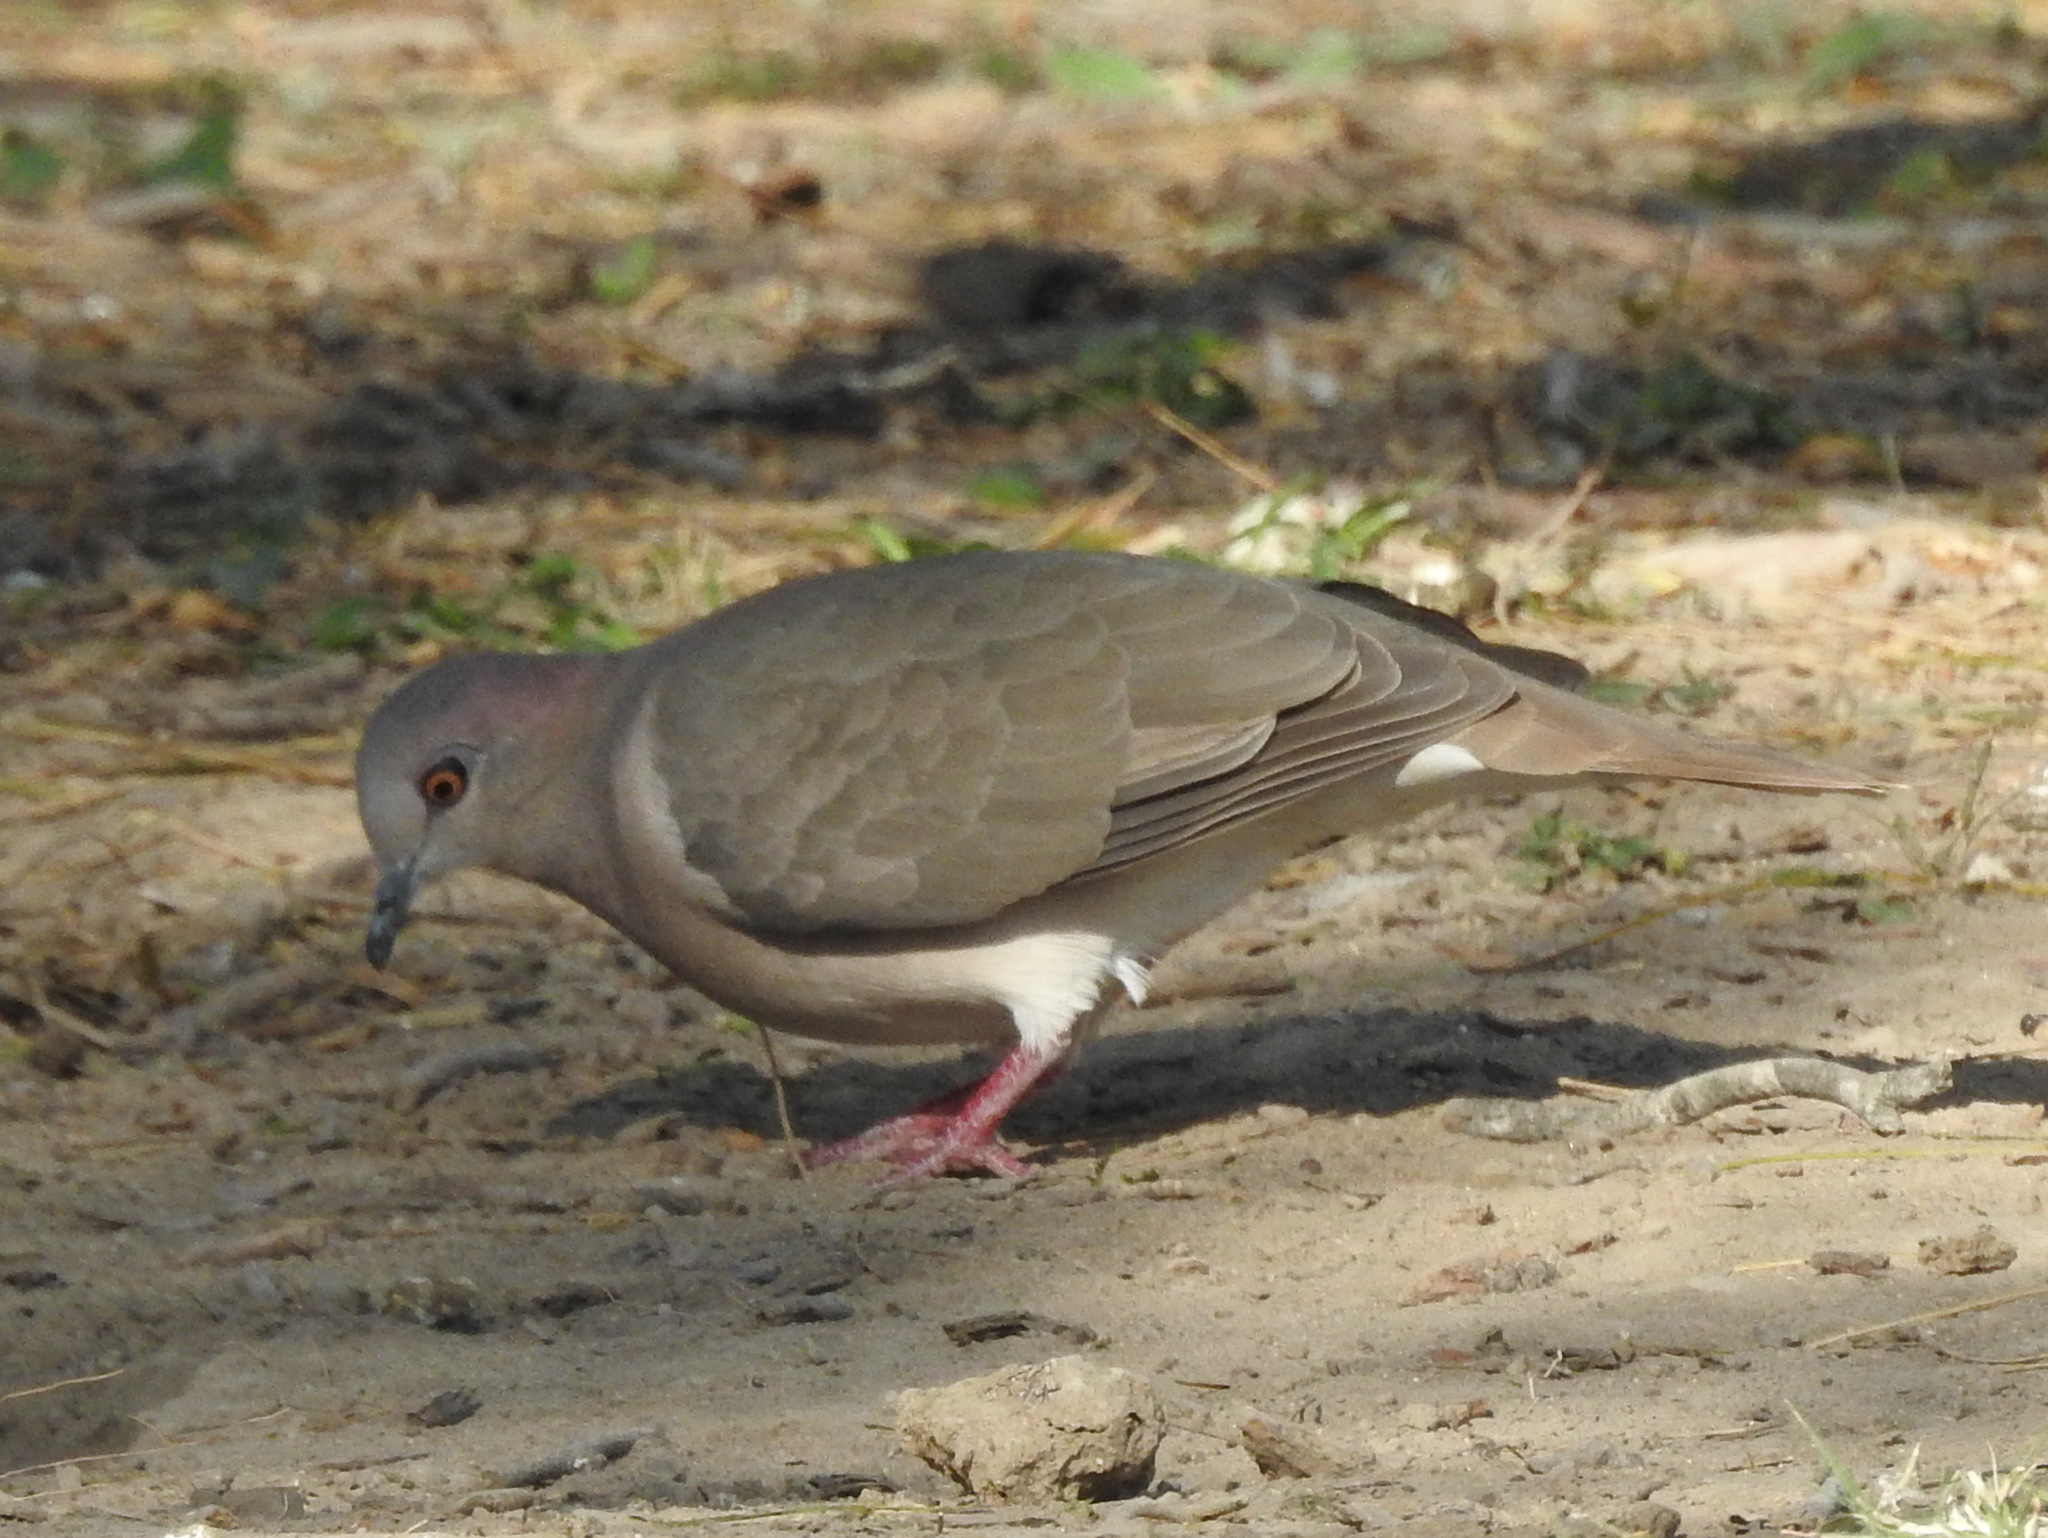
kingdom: Animalia
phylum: Chordata
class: Aves
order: Columbiformes
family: Columbidae
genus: Leptotila
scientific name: Leptotila verreauxi
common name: White-tipped dove
